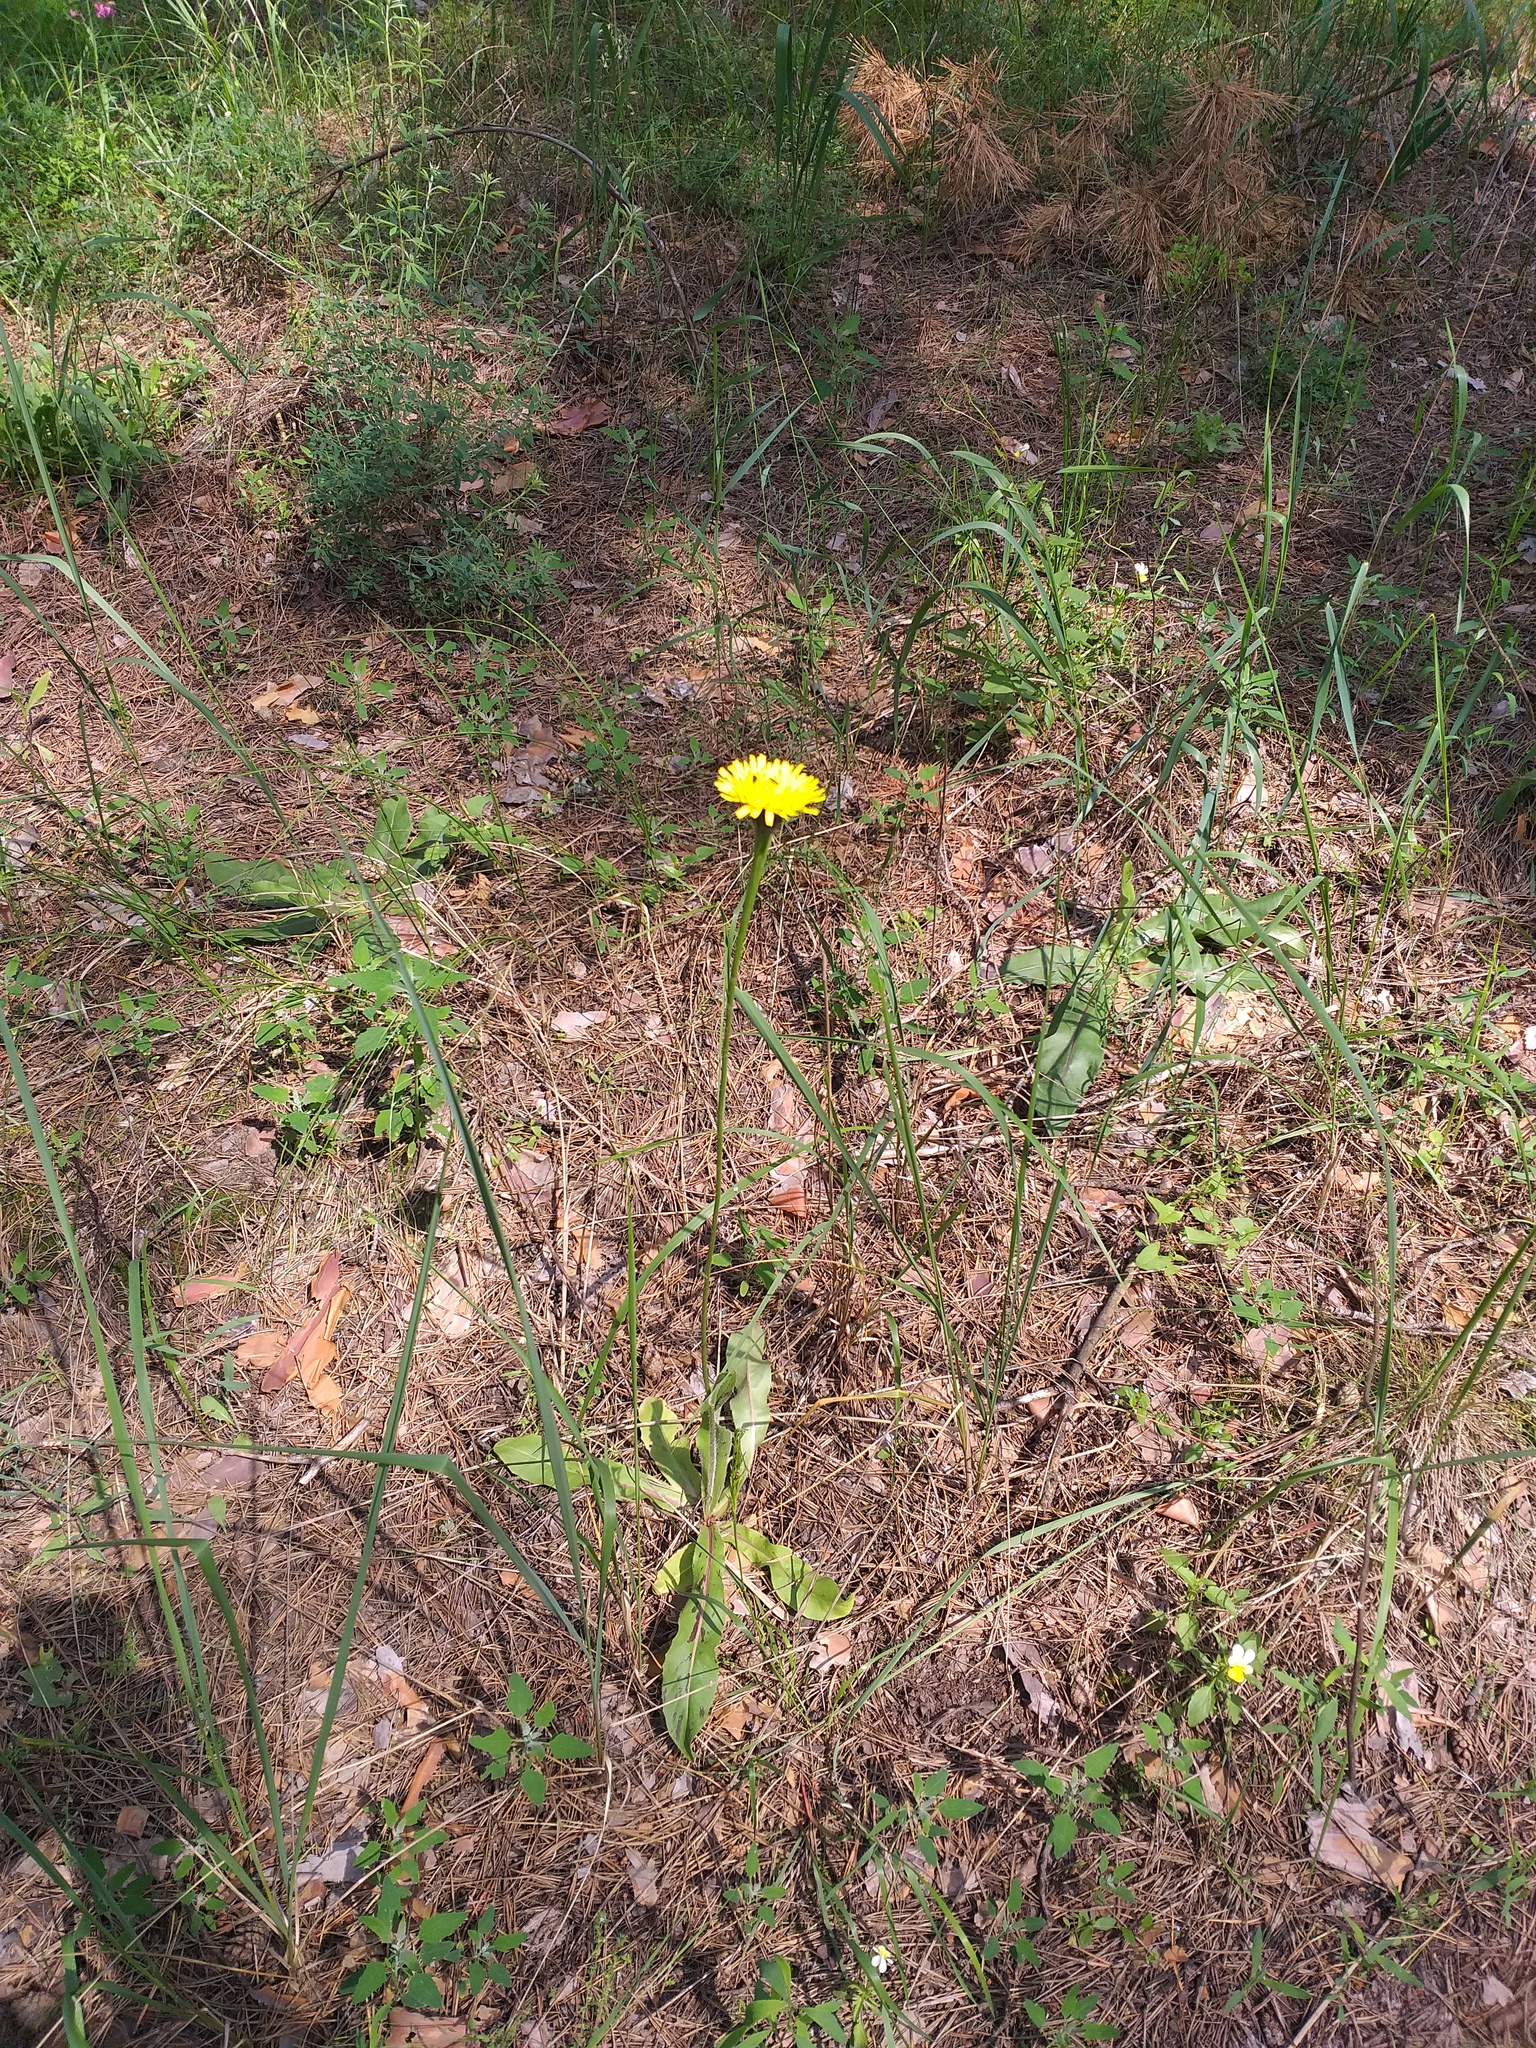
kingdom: Plantae
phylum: Tracheophyta
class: Magnoliopsida
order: Asterales
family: Asteraceae
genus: Trommsdorffia
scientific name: Trommsdorffia maculata
